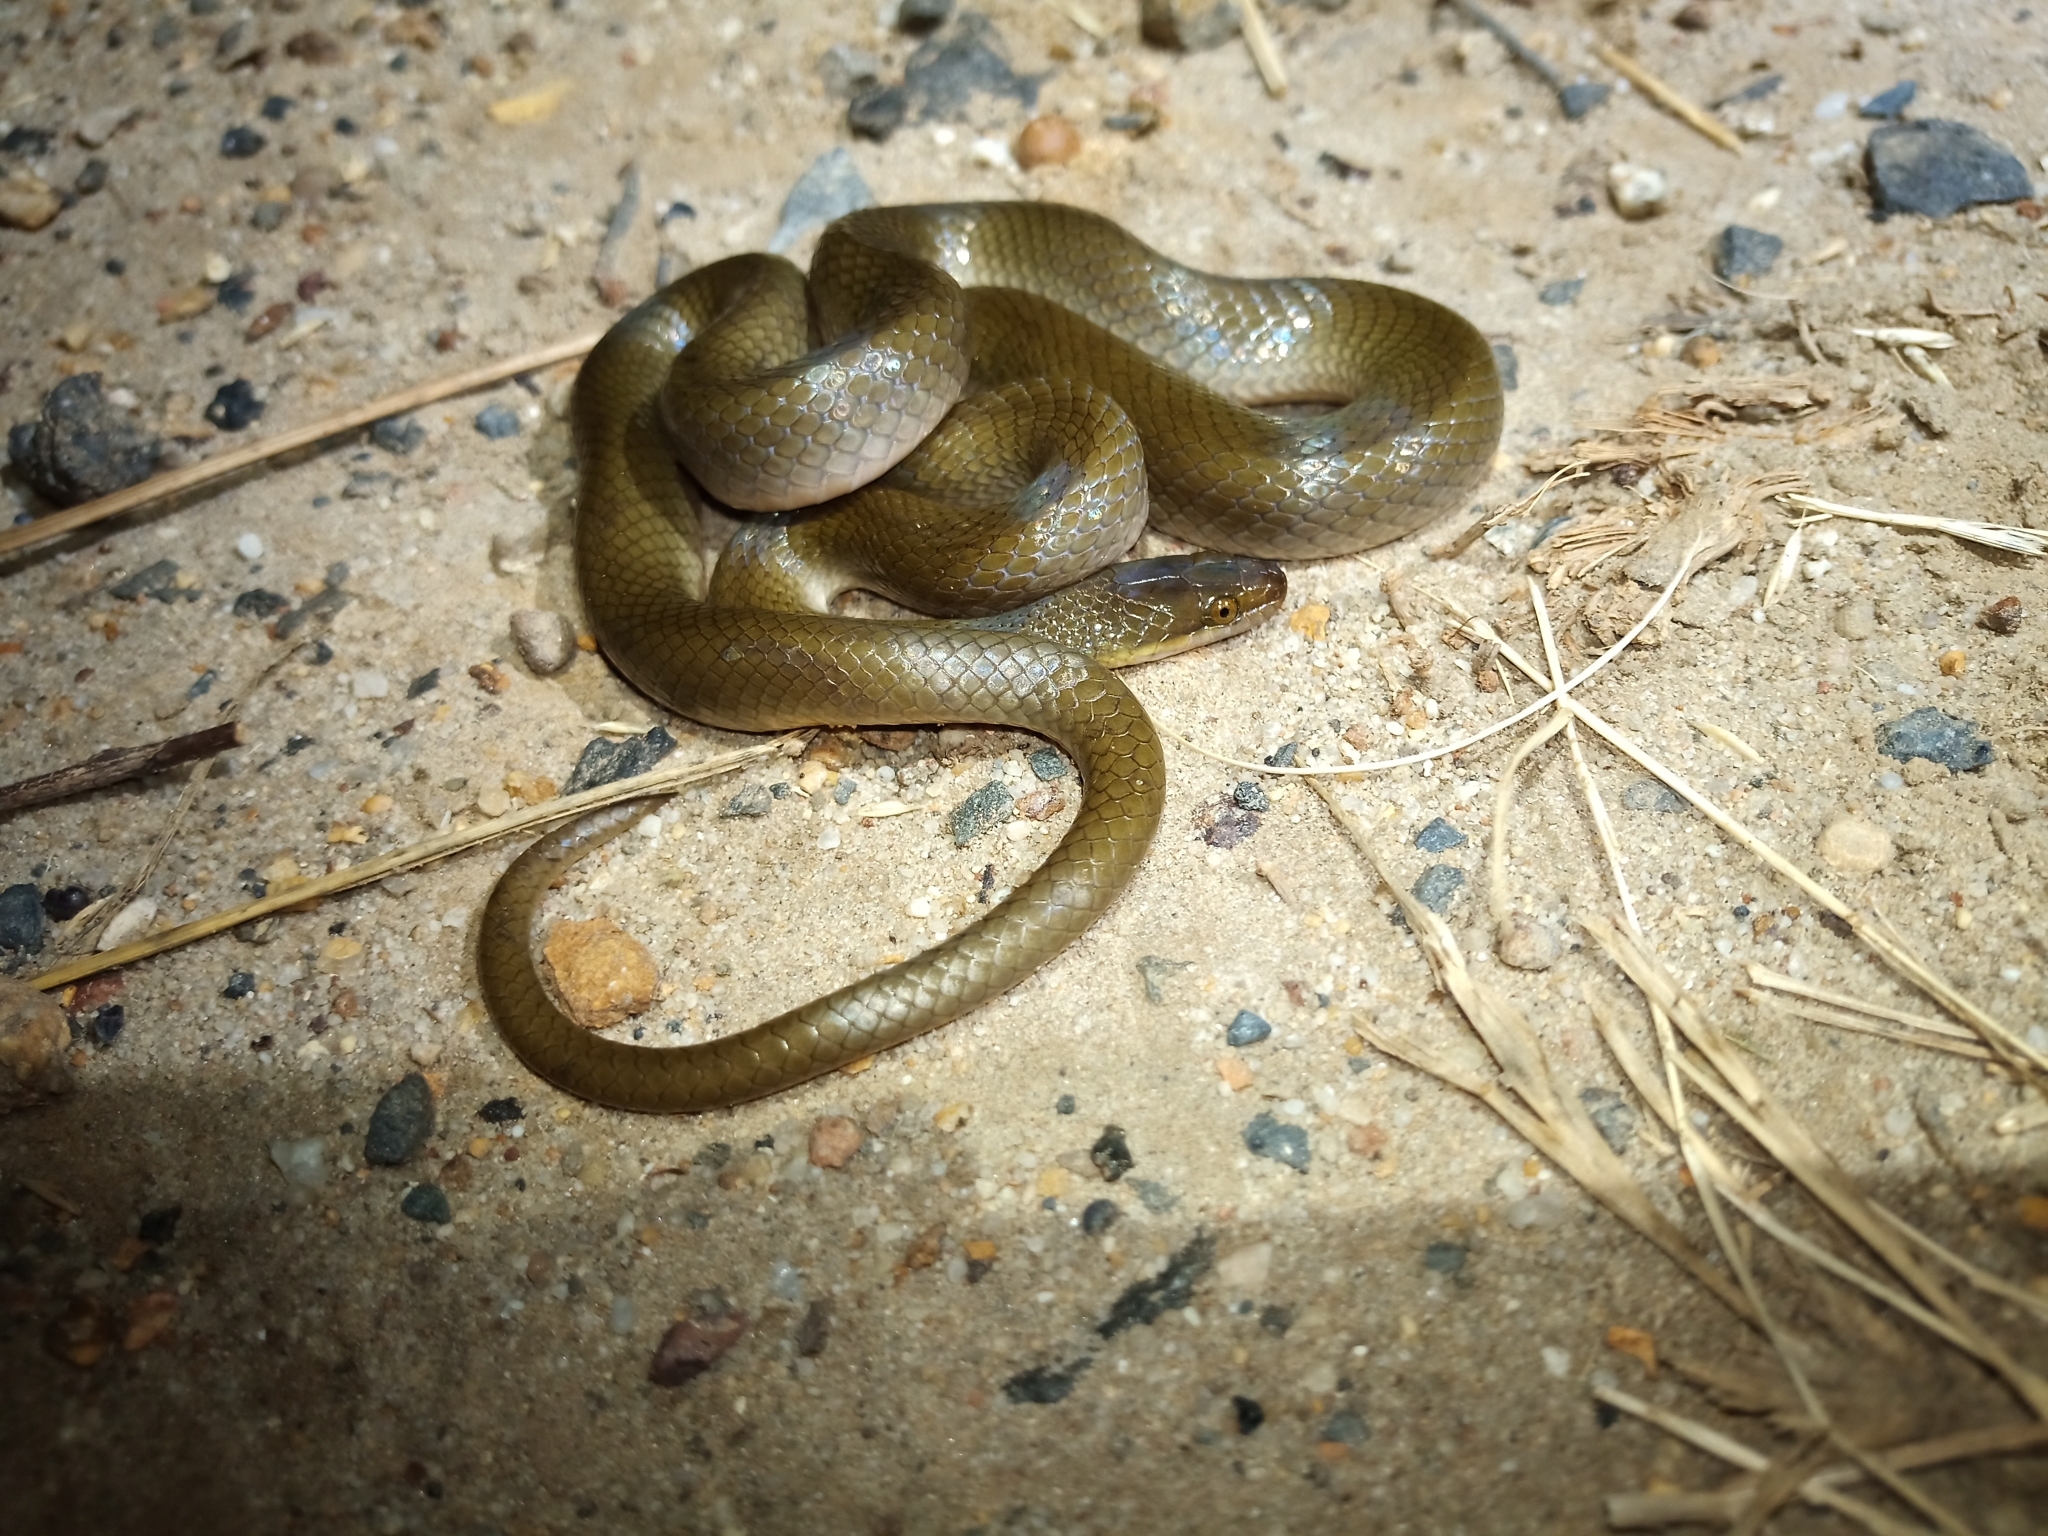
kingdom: Animalia
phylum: Chordata
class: Squamata
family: Lamprophiidae
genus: Lycodonomorphus
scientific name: Lycodonomorphus rufulus
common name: Brown water snake
